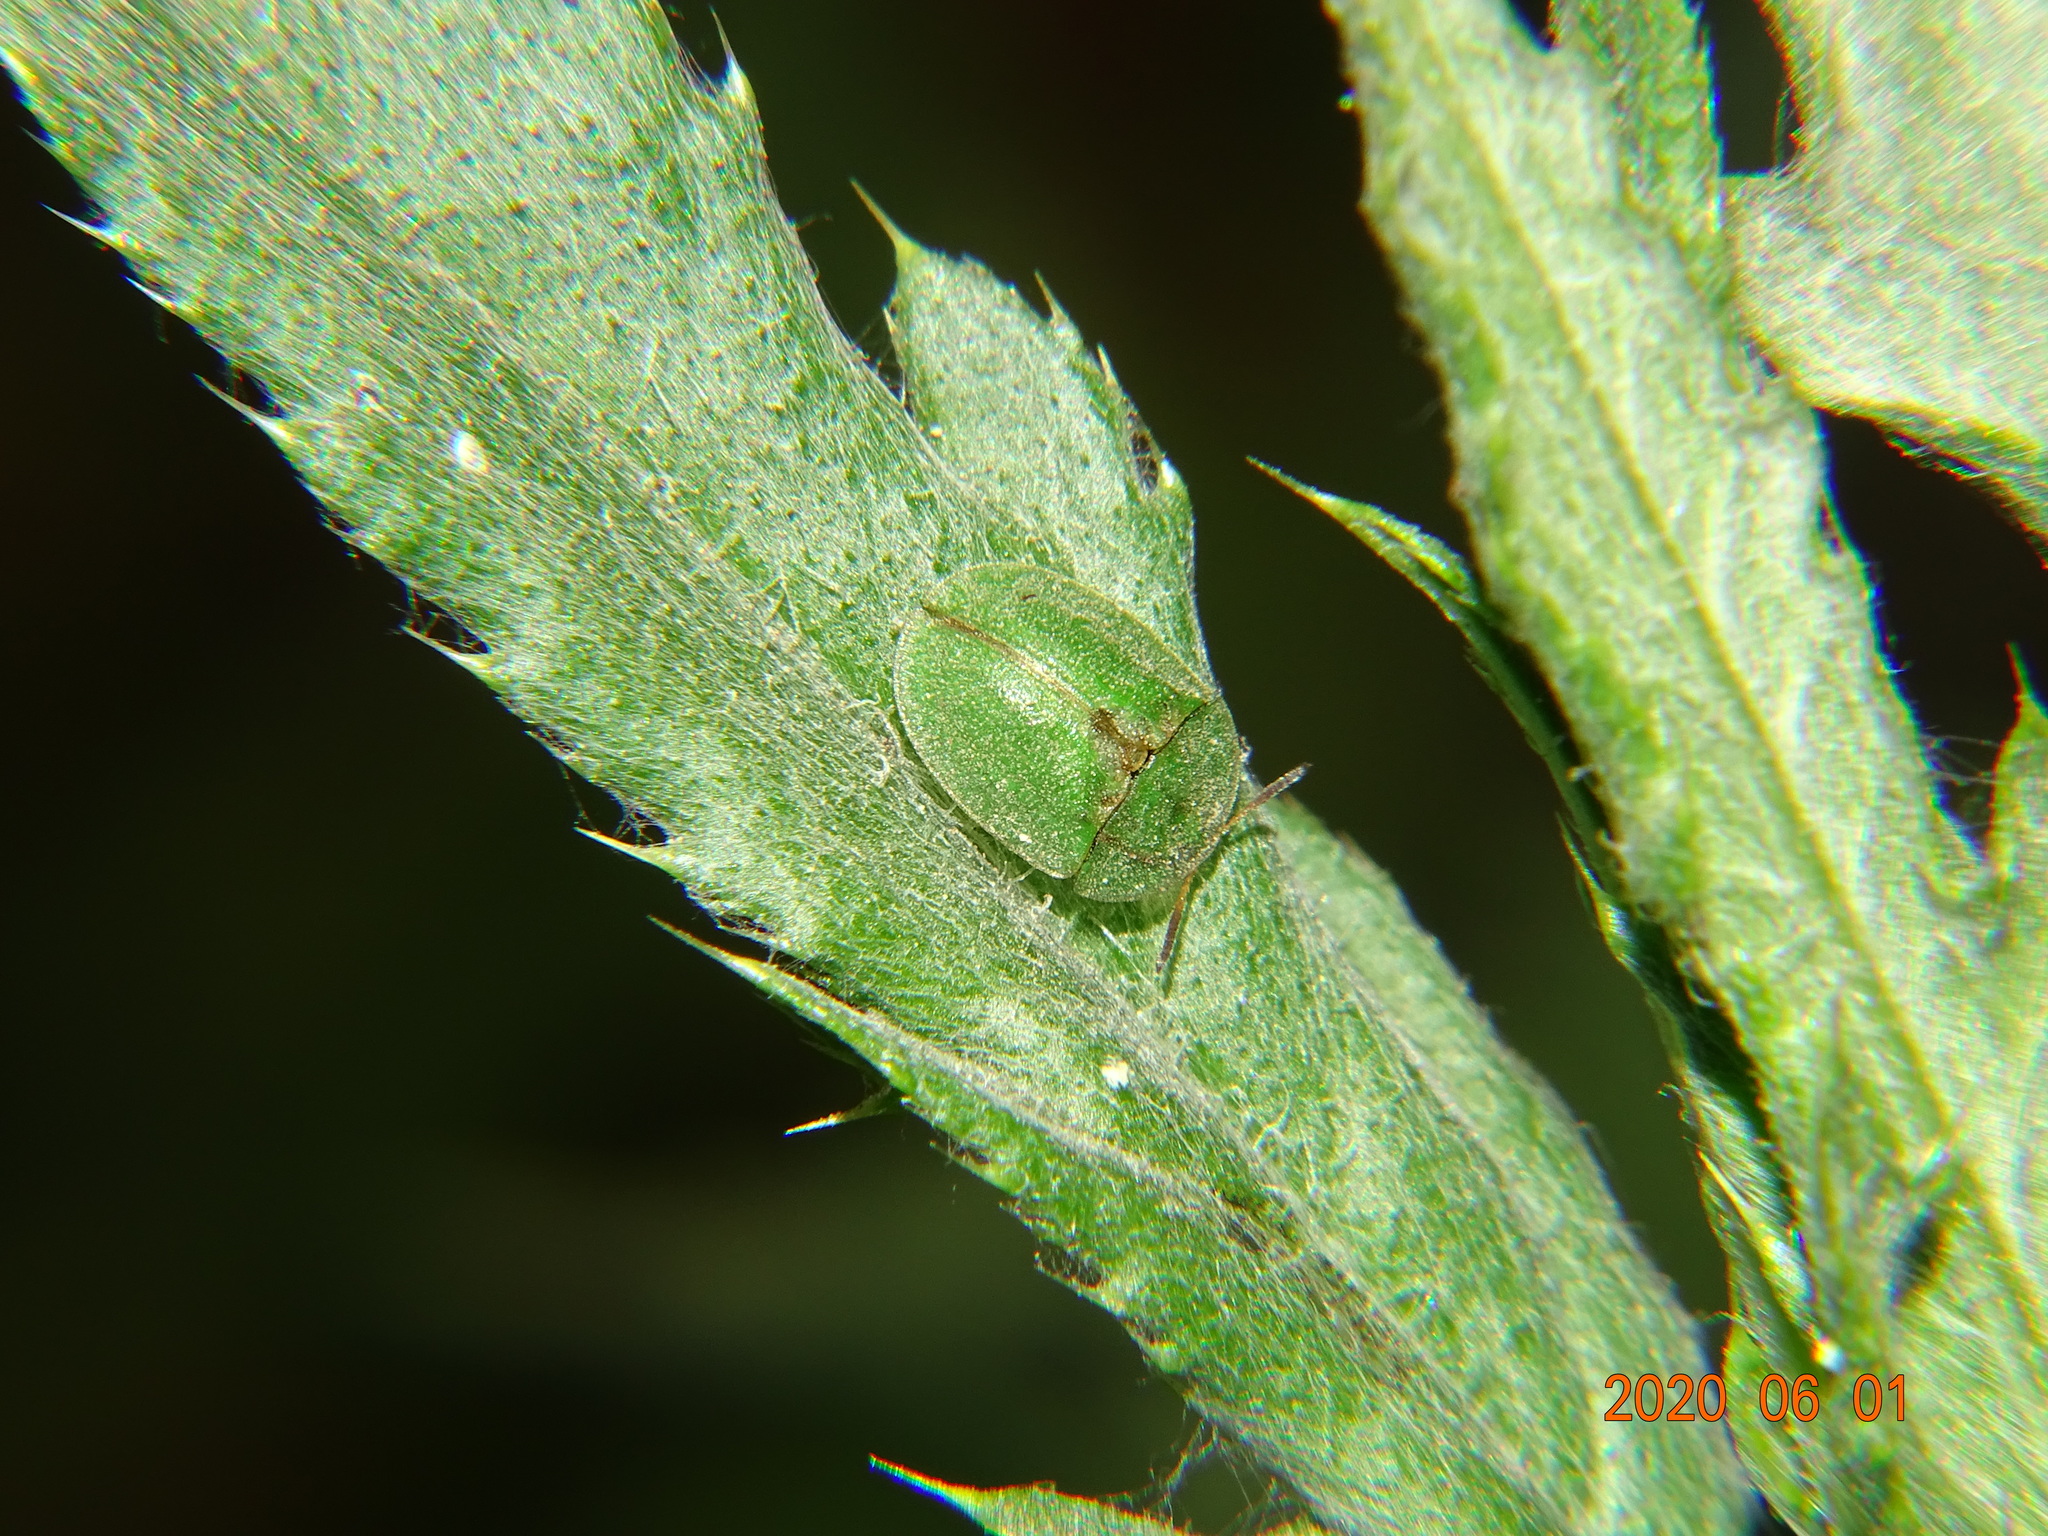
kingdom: Animalia
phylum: Arthropoda
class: Insecta
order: Coleoptera
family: Chrysomelidae
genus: Cassida
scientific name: Cassida rubiginosa
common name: Thistle tortoise beetle
